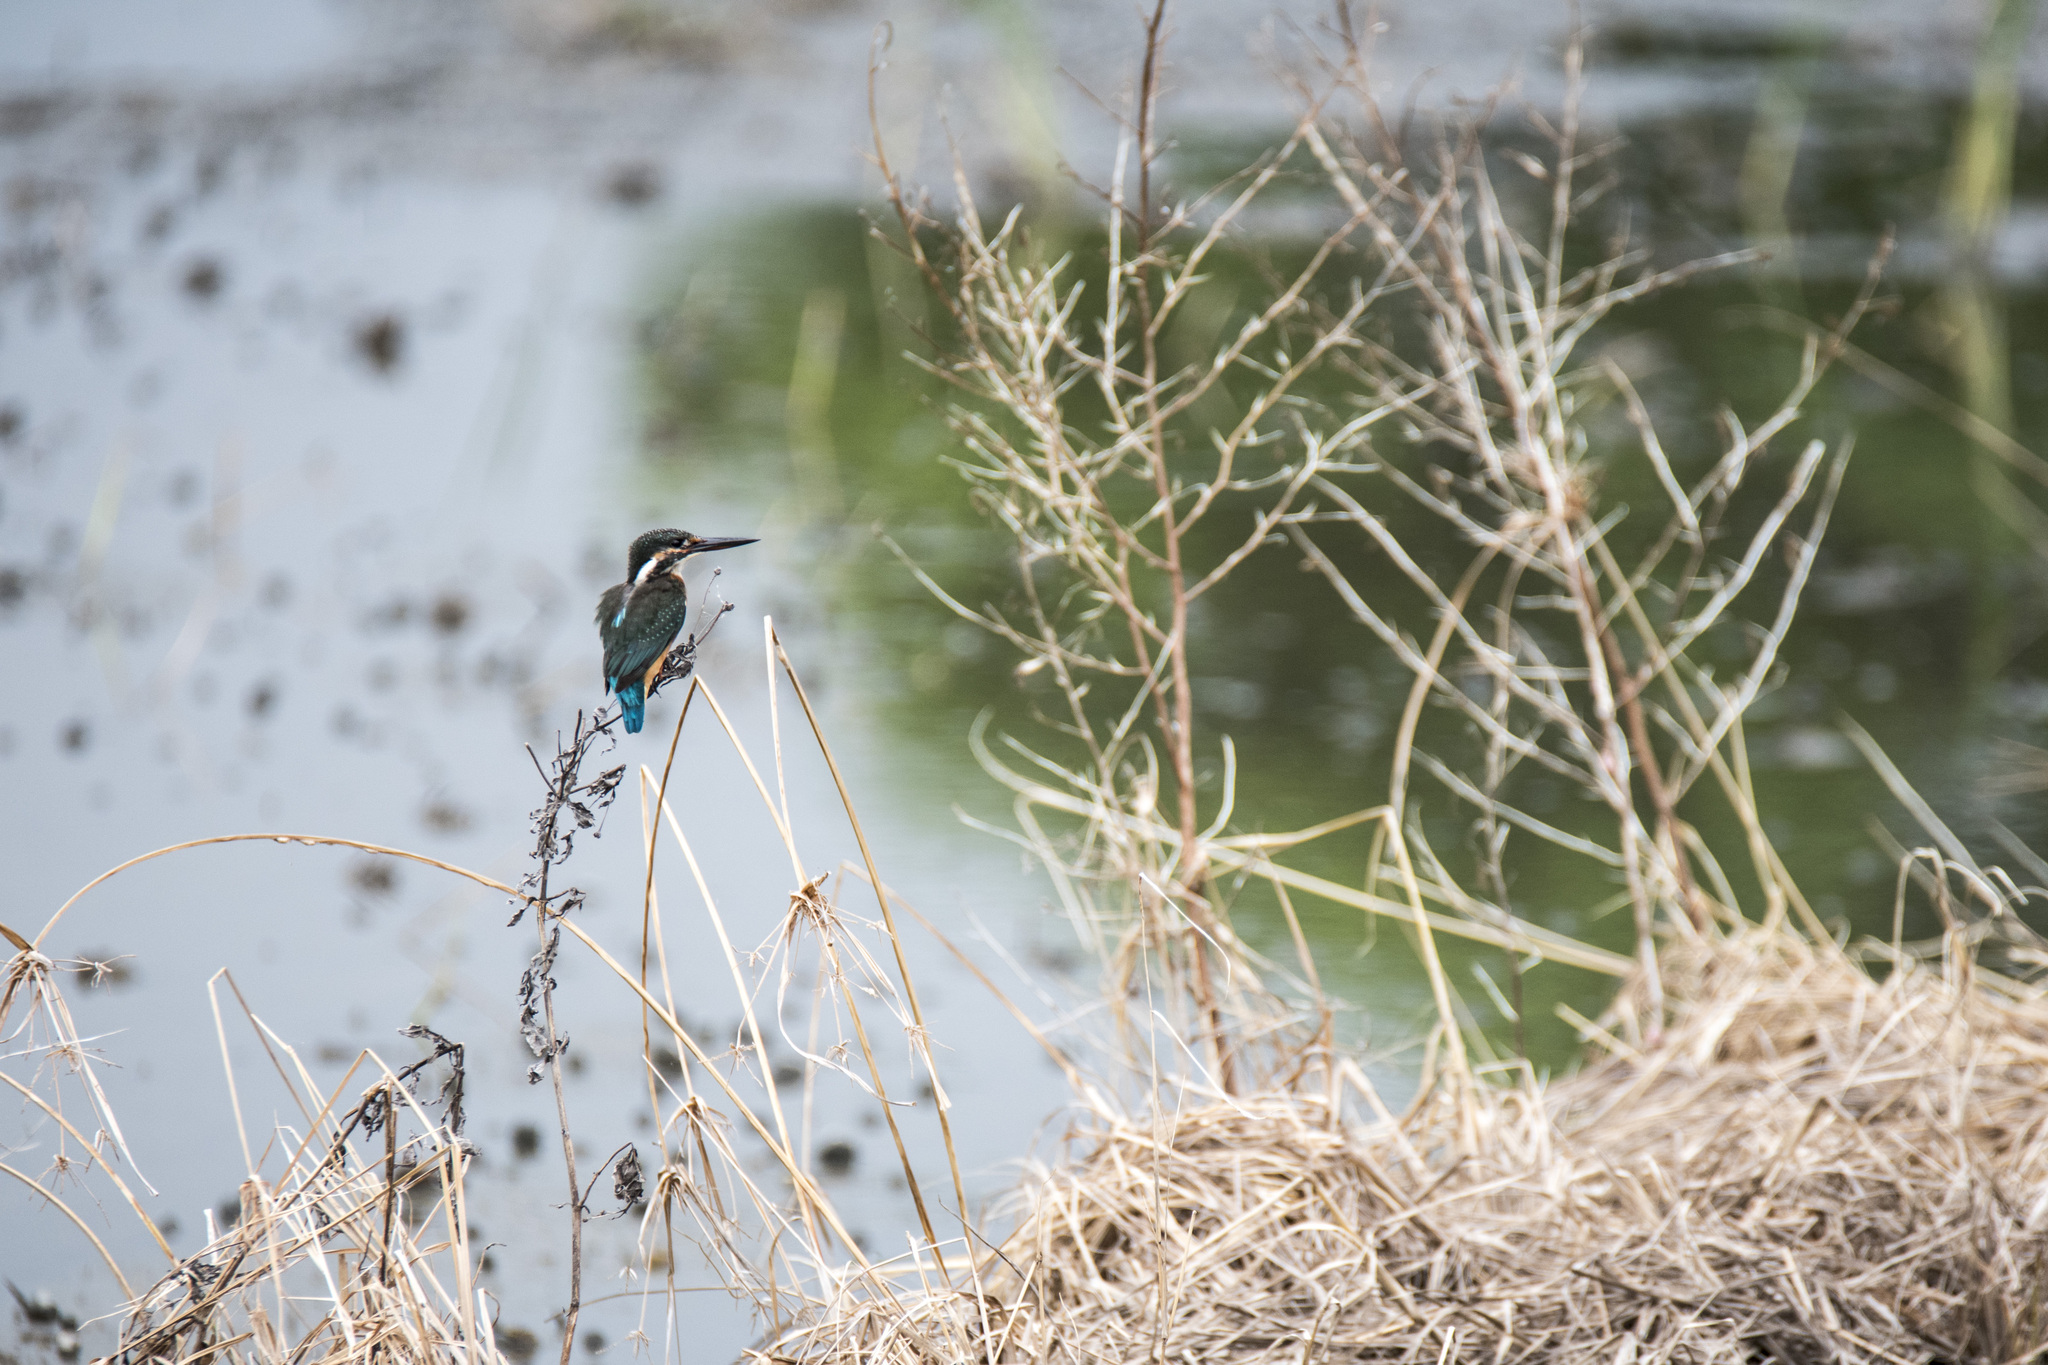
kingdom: Animalia
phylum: Chordata
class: Aves
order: Coraciiformes
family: Alcedinidae
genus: Alcedo
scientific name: Alcedo atthis
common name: Common kingfisher
